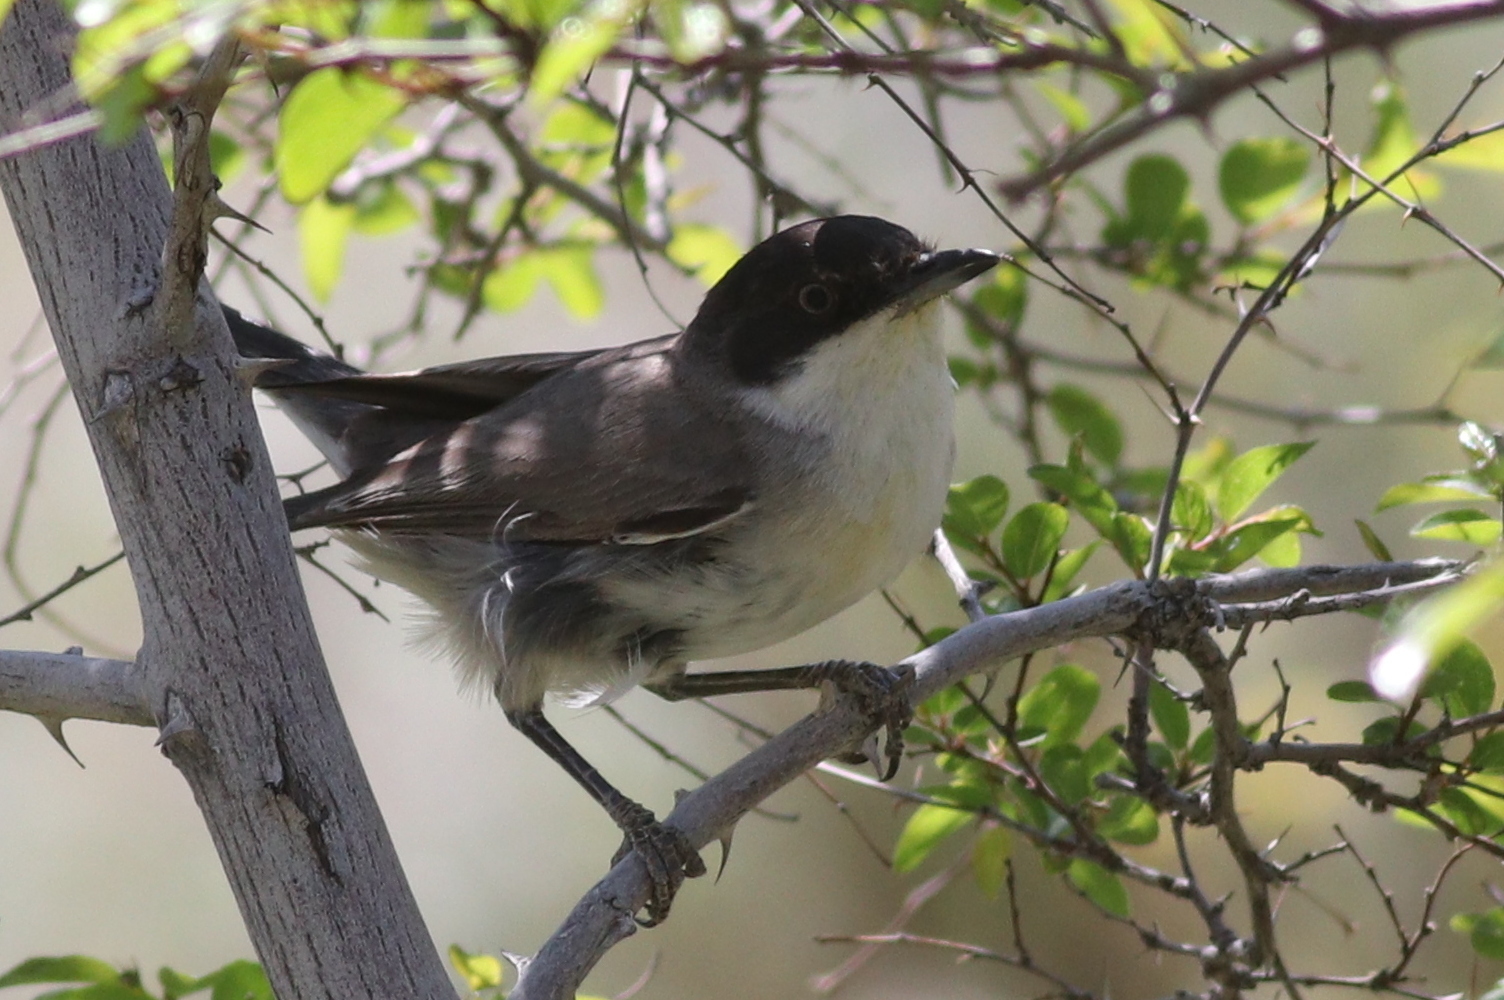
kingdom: Animalia
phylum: Chordata
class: Aves
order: Passeriformes
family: Sylviidae
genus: Sylvia
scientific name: Sylvia crassirostris
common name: Eastern orphean warbler
